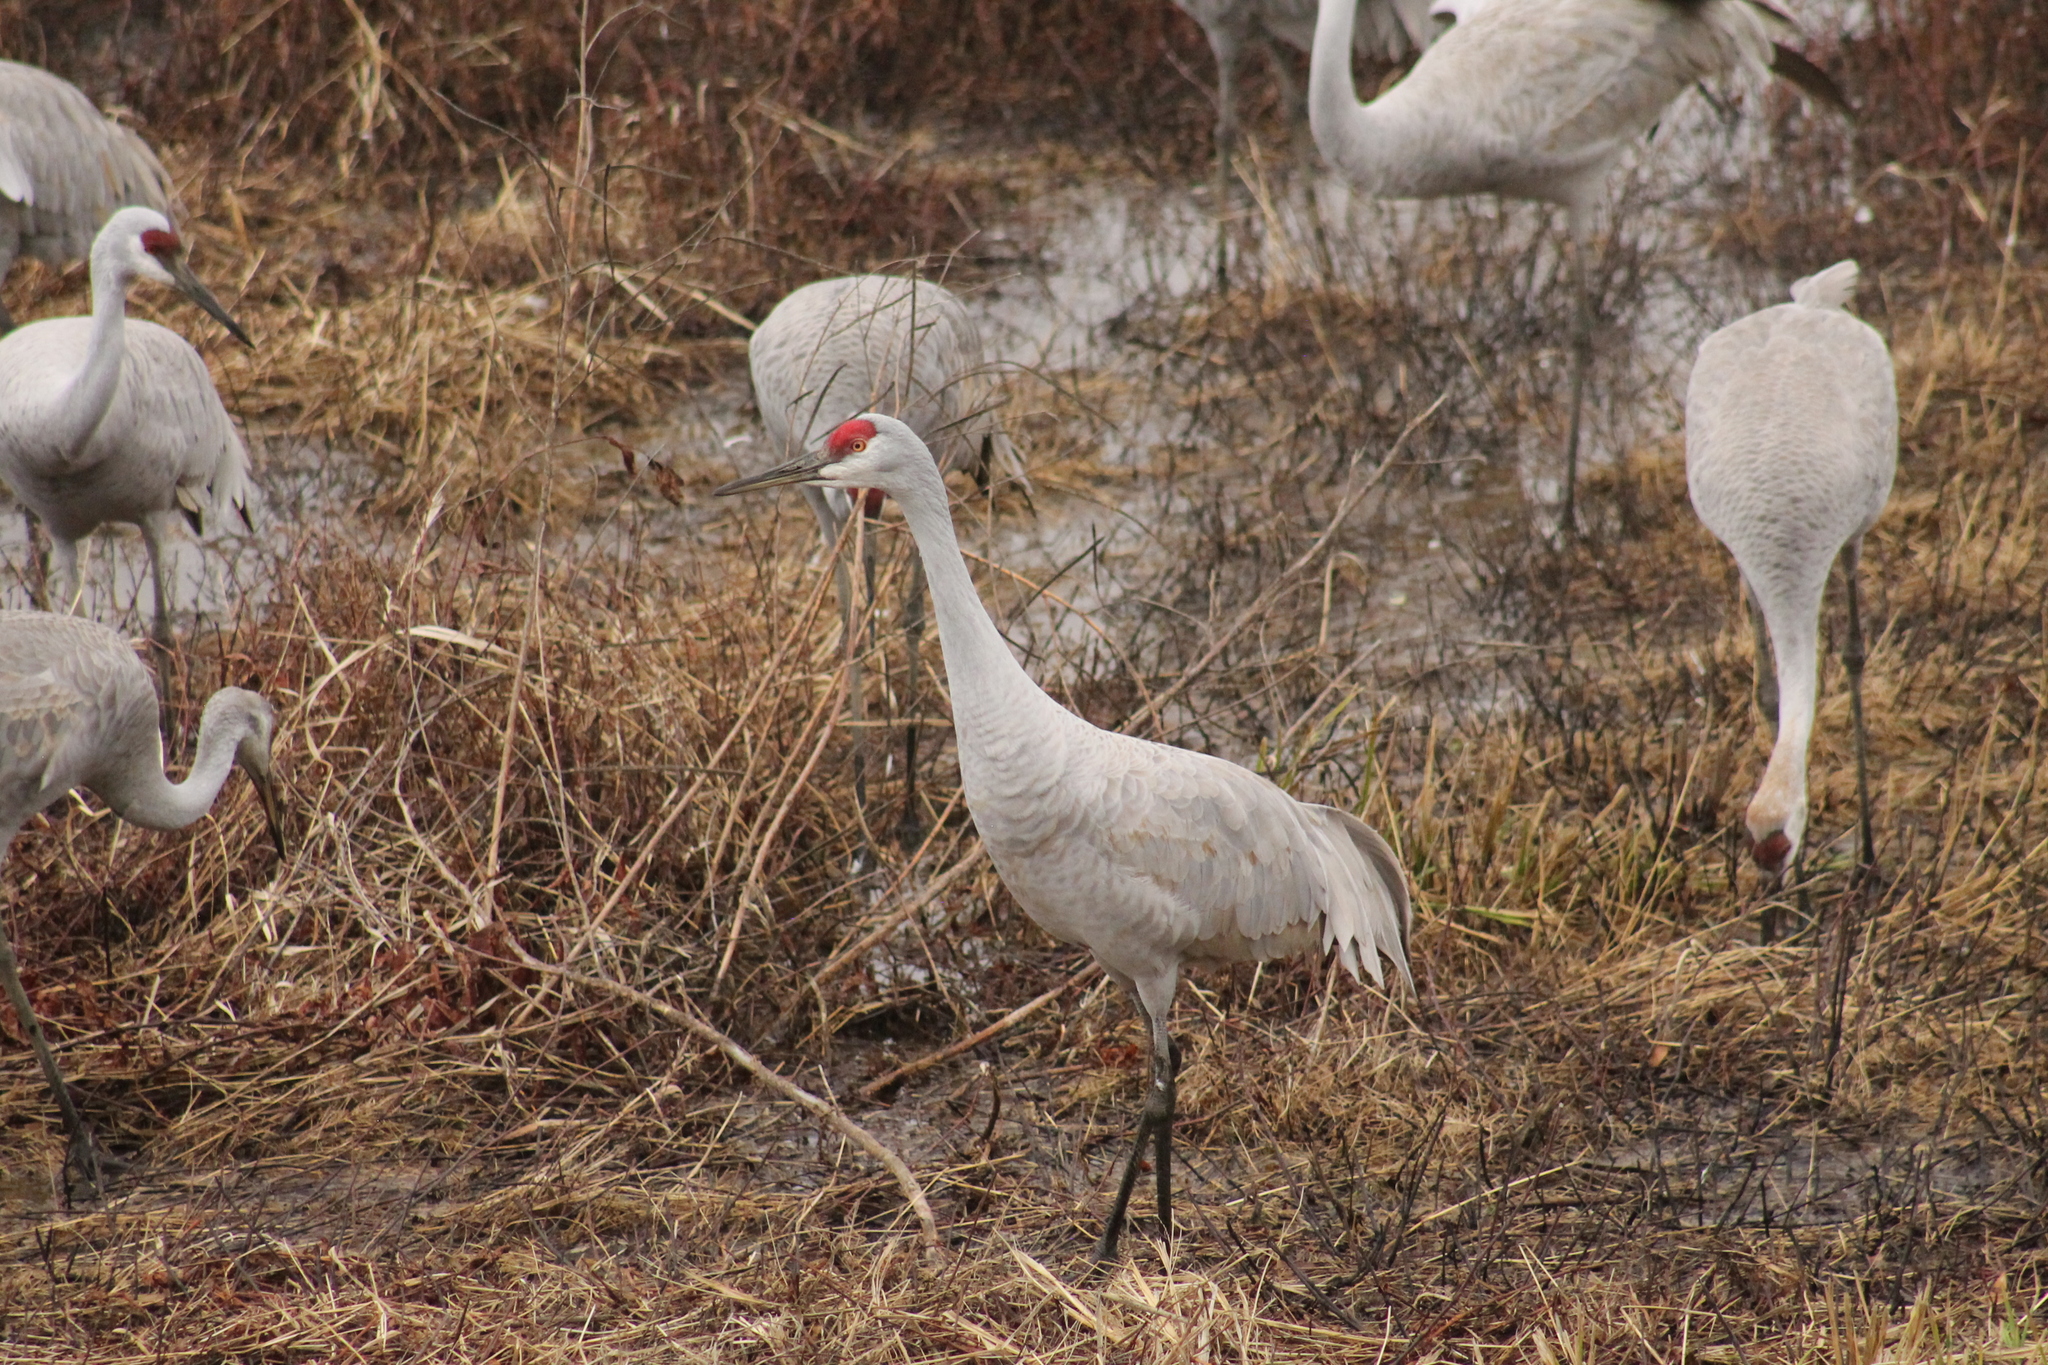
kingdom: Animalia
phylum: Chordata
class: Aves
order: Gruiformes
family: Gruidae
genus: Grus
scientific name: Grus canadensis
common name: Sandhill crane
